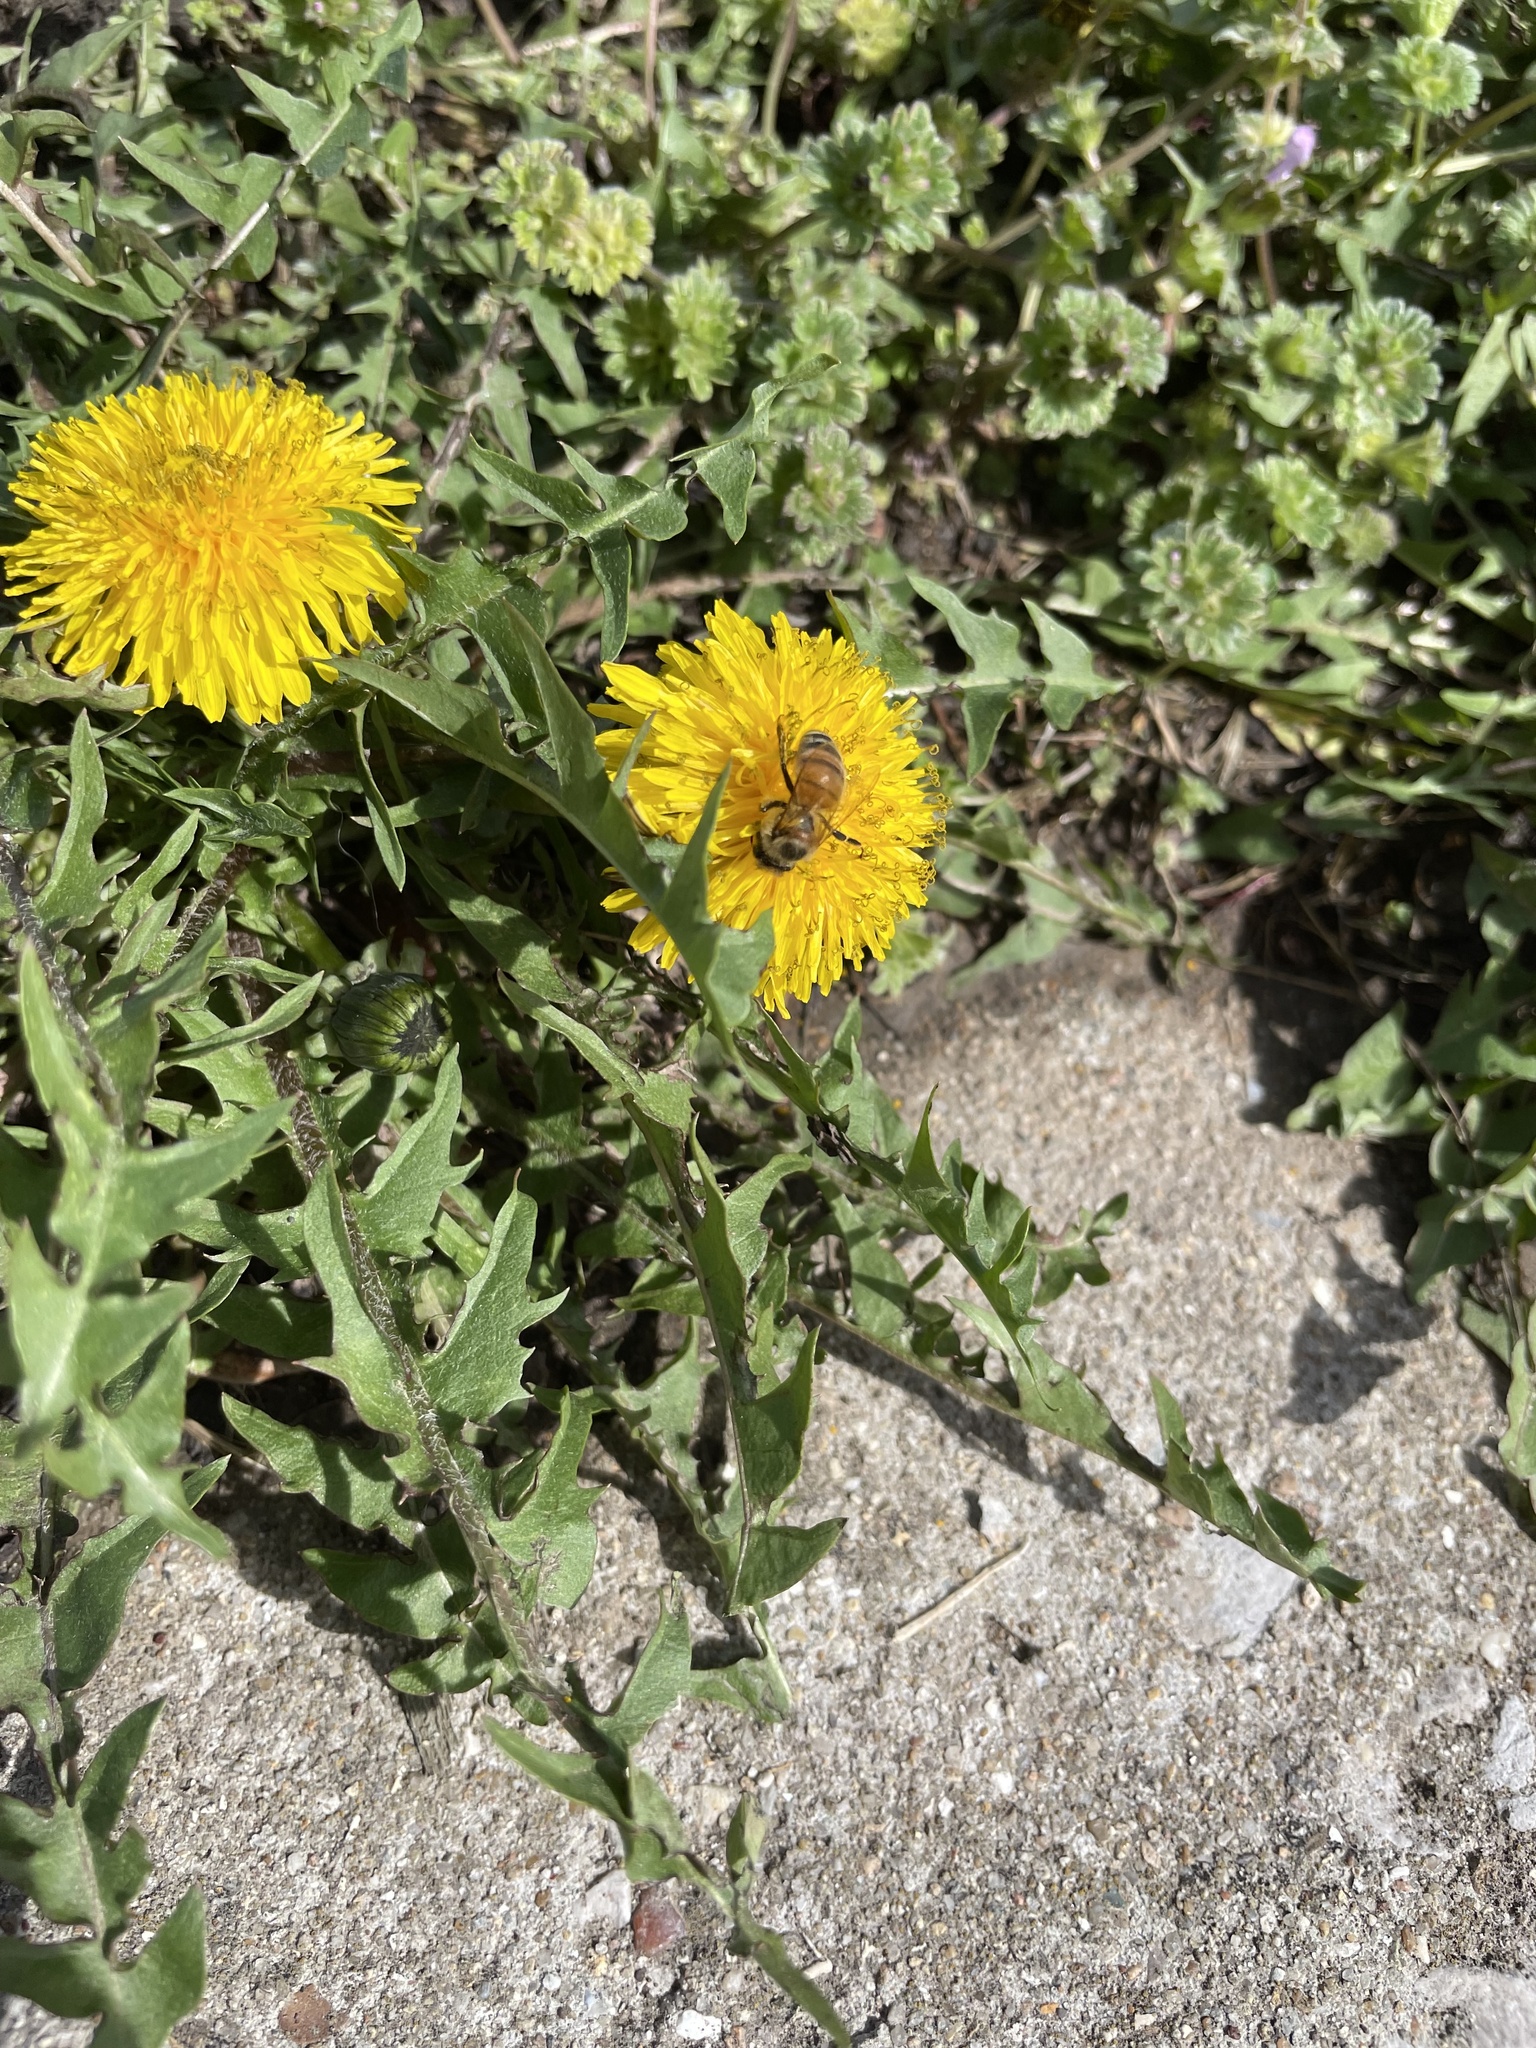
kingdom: Animalia
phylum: Arthropoda
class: Insecta
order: Hymenoptera
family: Apidae
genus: Apis
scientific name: Apis mellifera
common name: Honey bee
